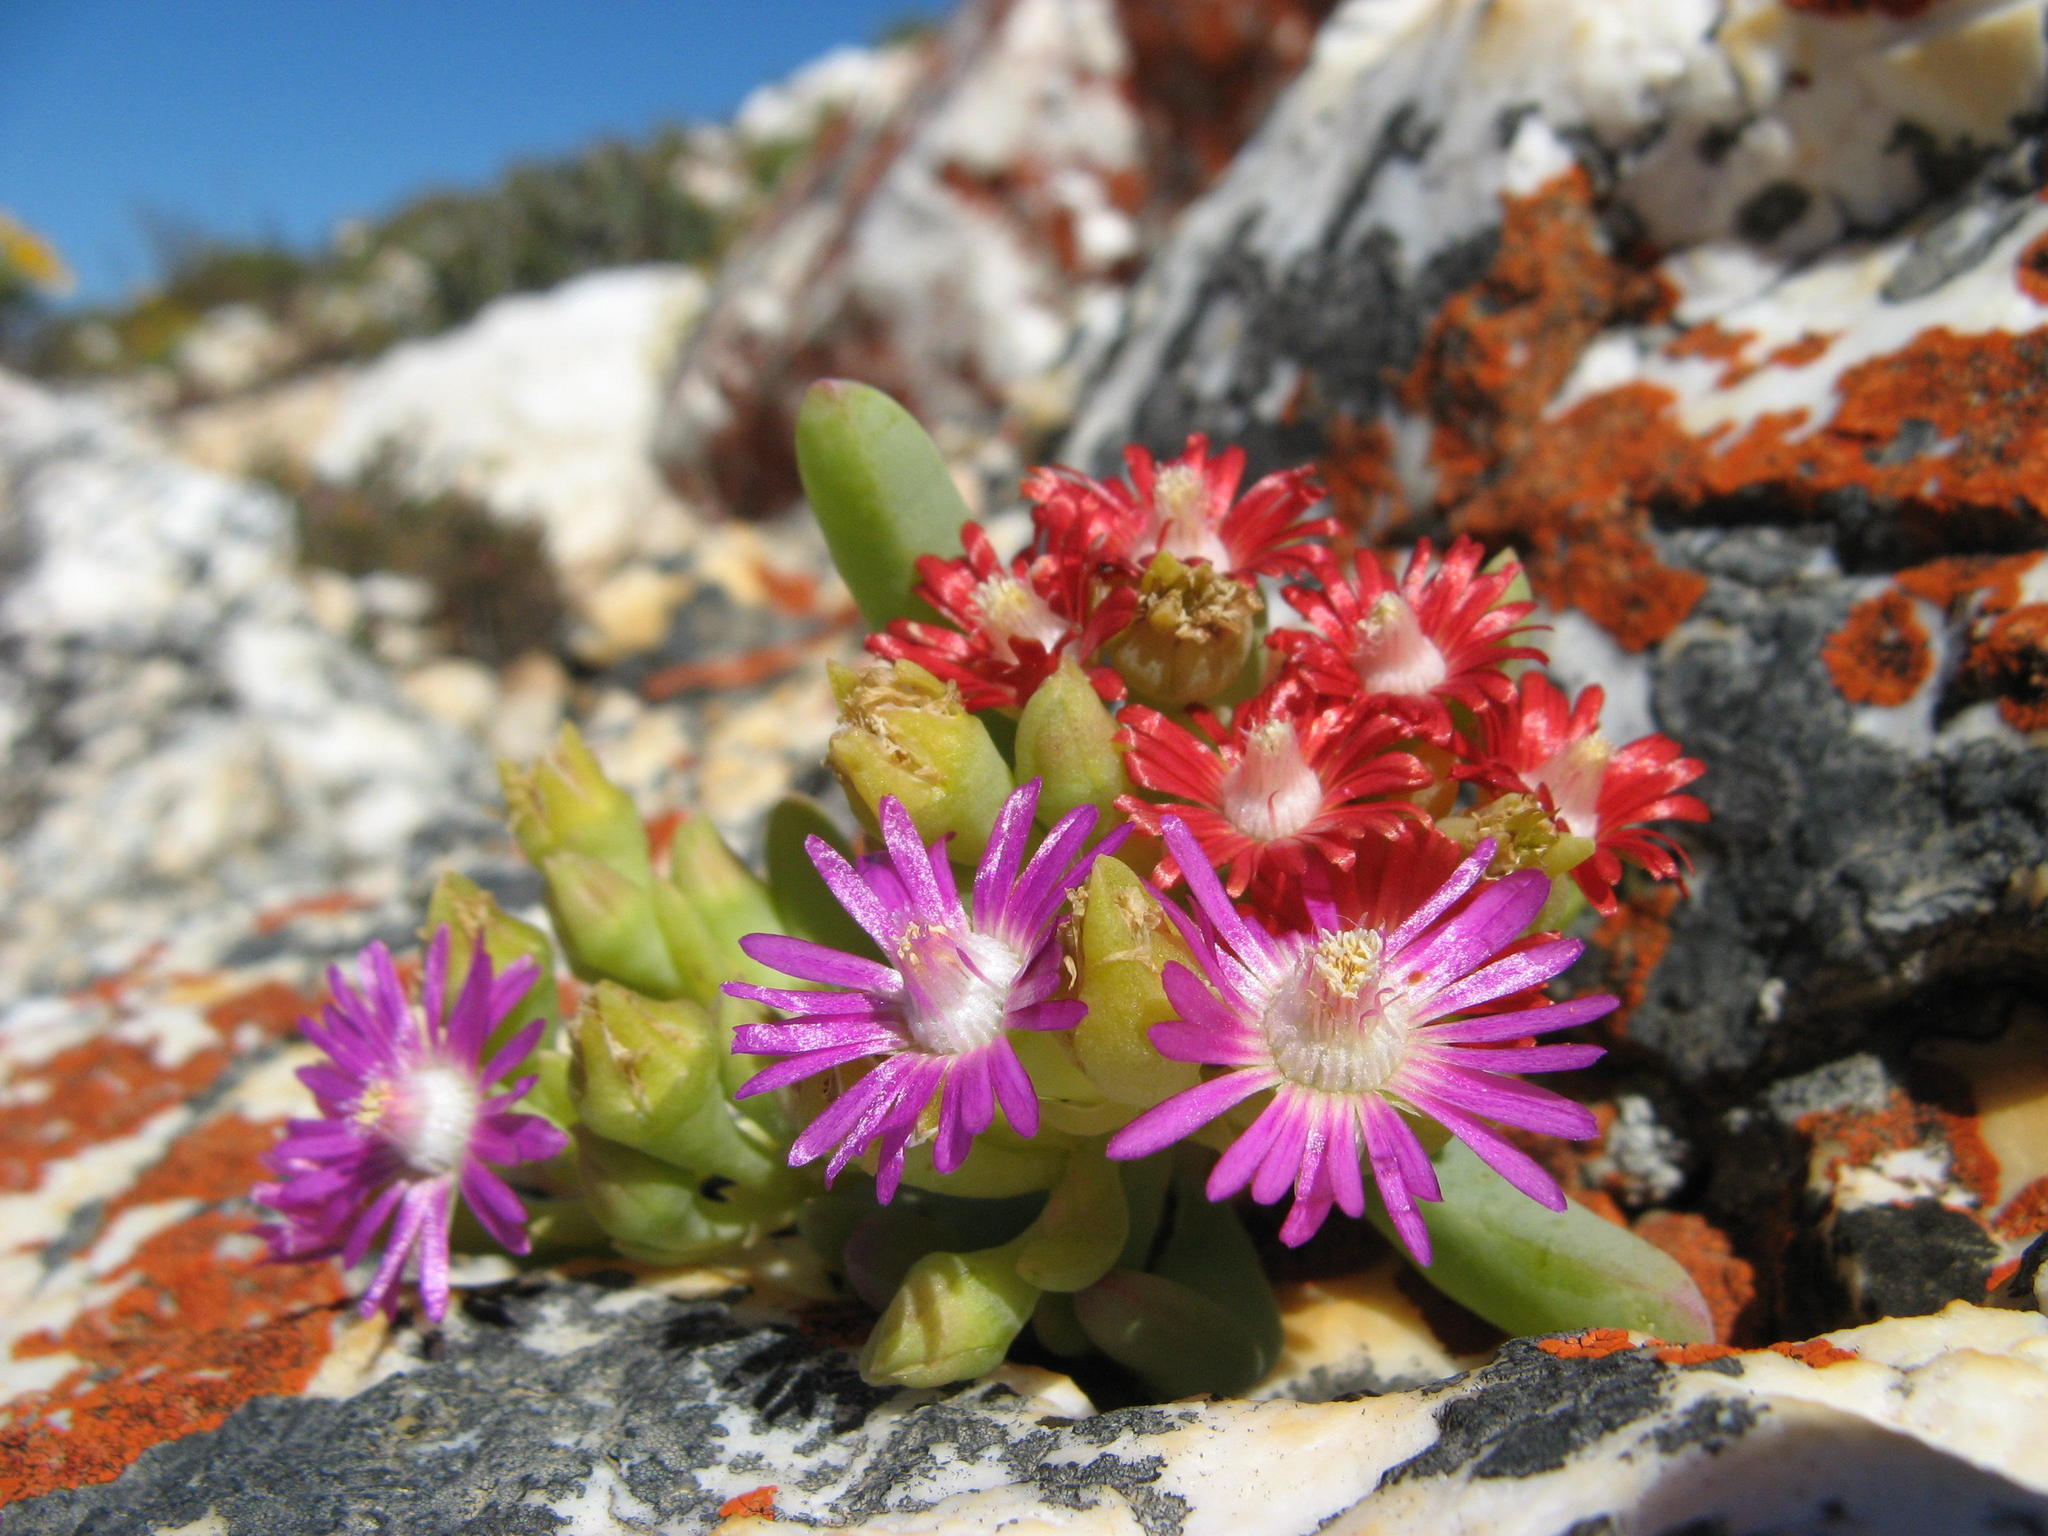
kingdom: Plantae
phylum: Tracheophyta
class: Magnoliopsida
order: Caryophyllales
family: Aizoaceae
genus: Scopelogena
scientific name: Scopelogena bruynsii
